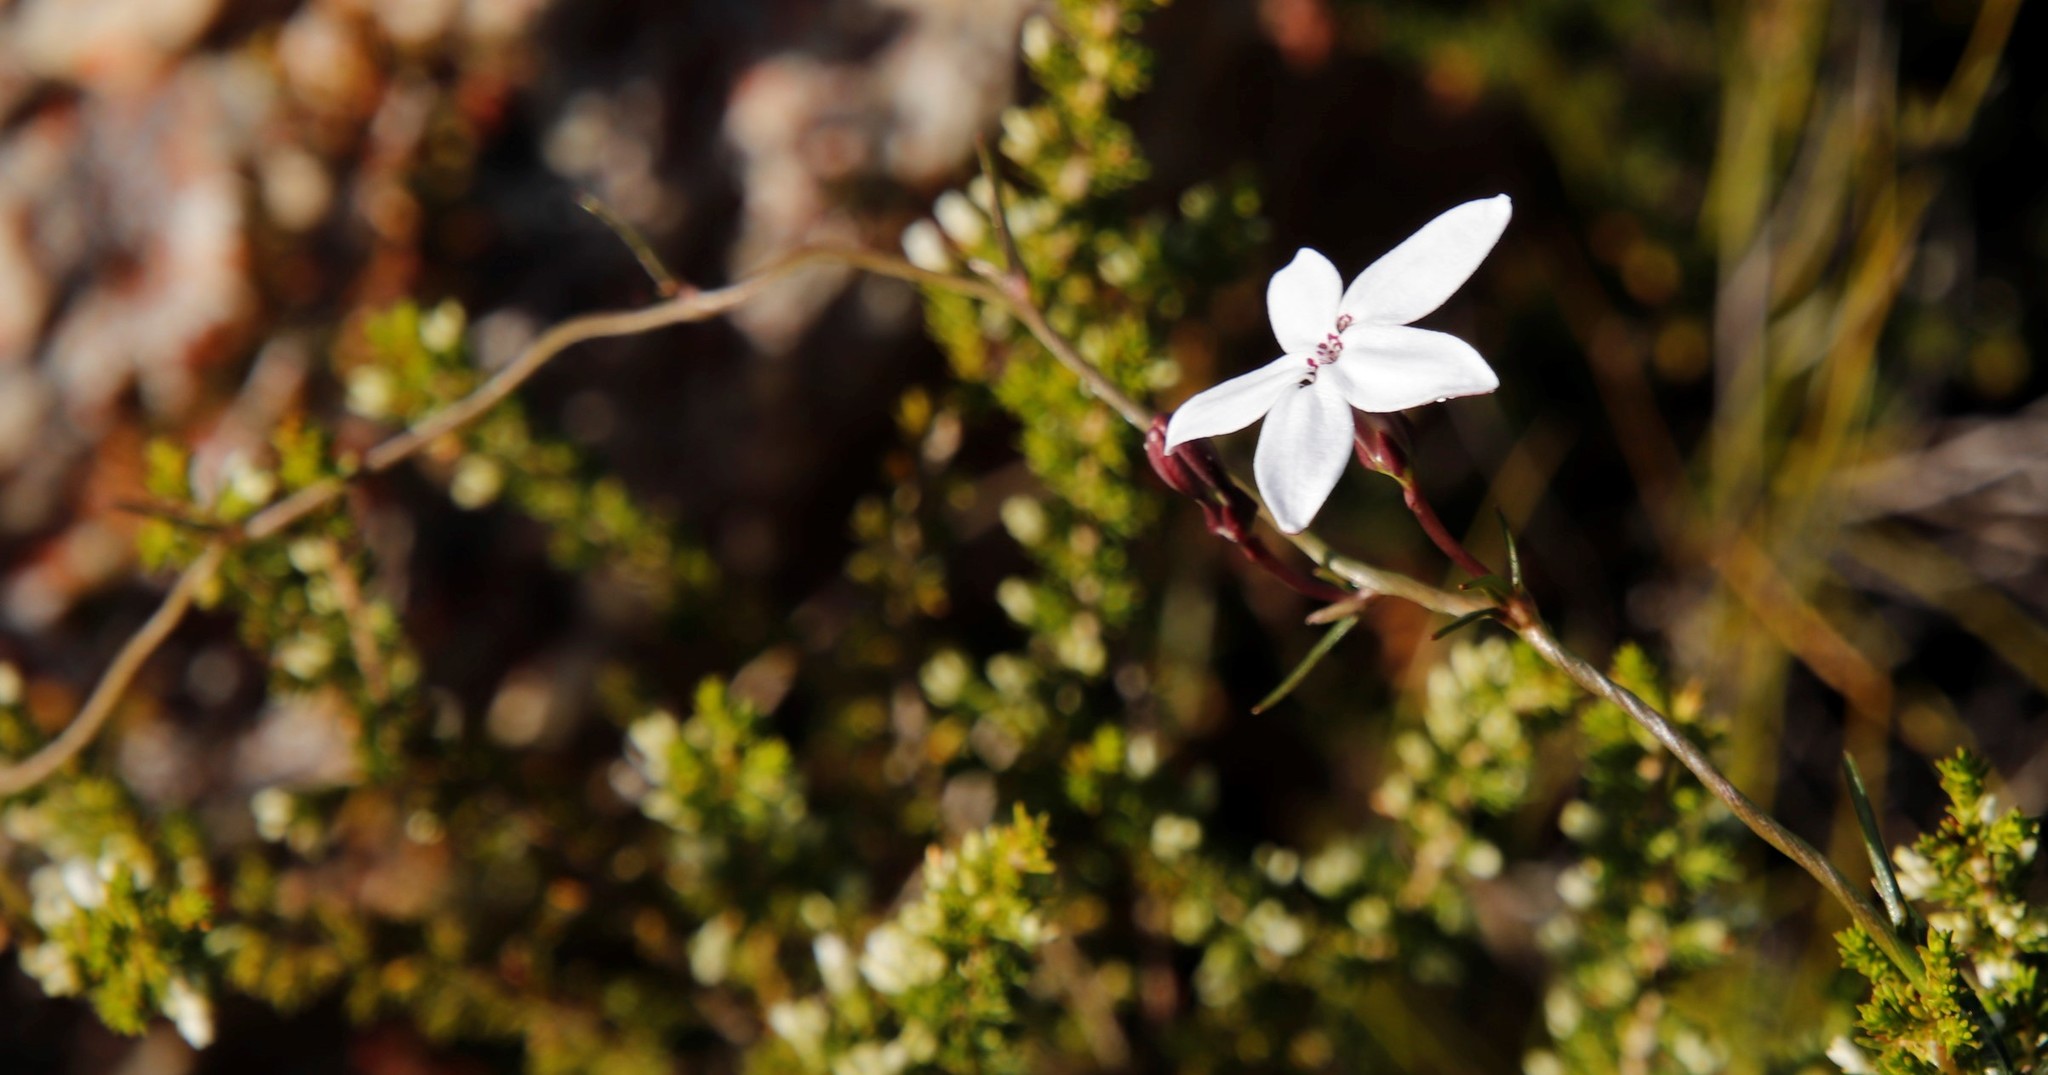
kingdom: Plantae
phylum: Tracheophyta
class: Magnoliopsida
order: Asterales
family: Campanulaceae
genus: Cyphia
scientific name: Cyphia volubilis
